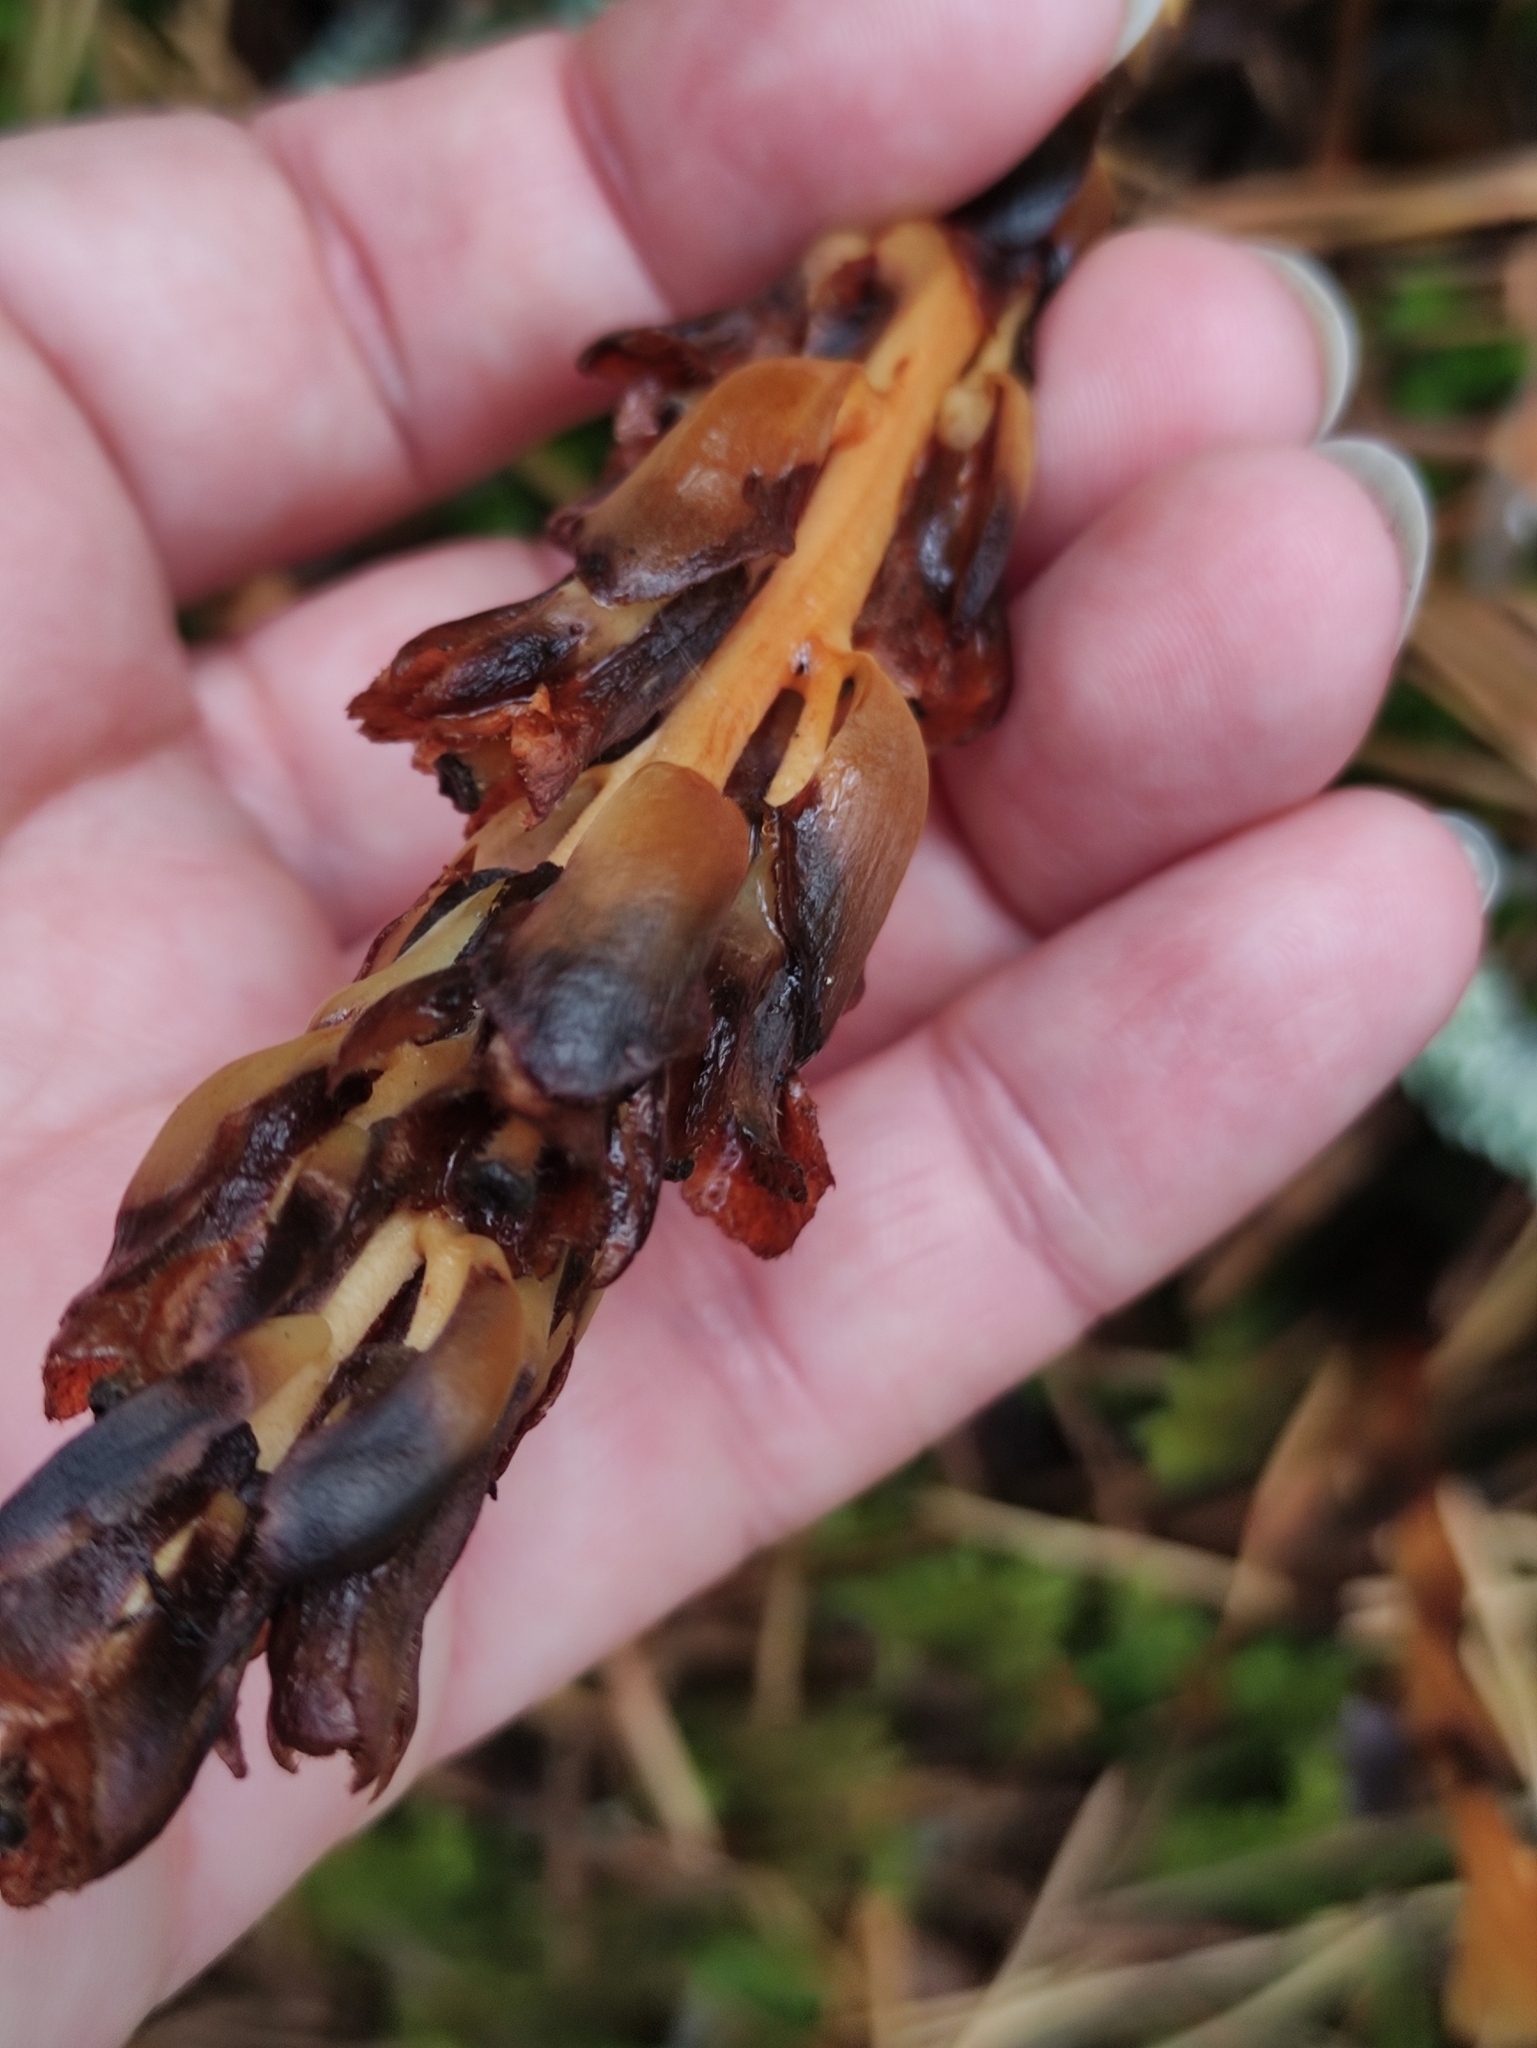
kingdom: Plantae
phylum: Tracheophyta
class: Magnoliopsida
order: Ericales
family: Ericaceae
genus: Hypopitys
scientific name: Hypopitys monotropa
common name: Yellow bird's-nest
